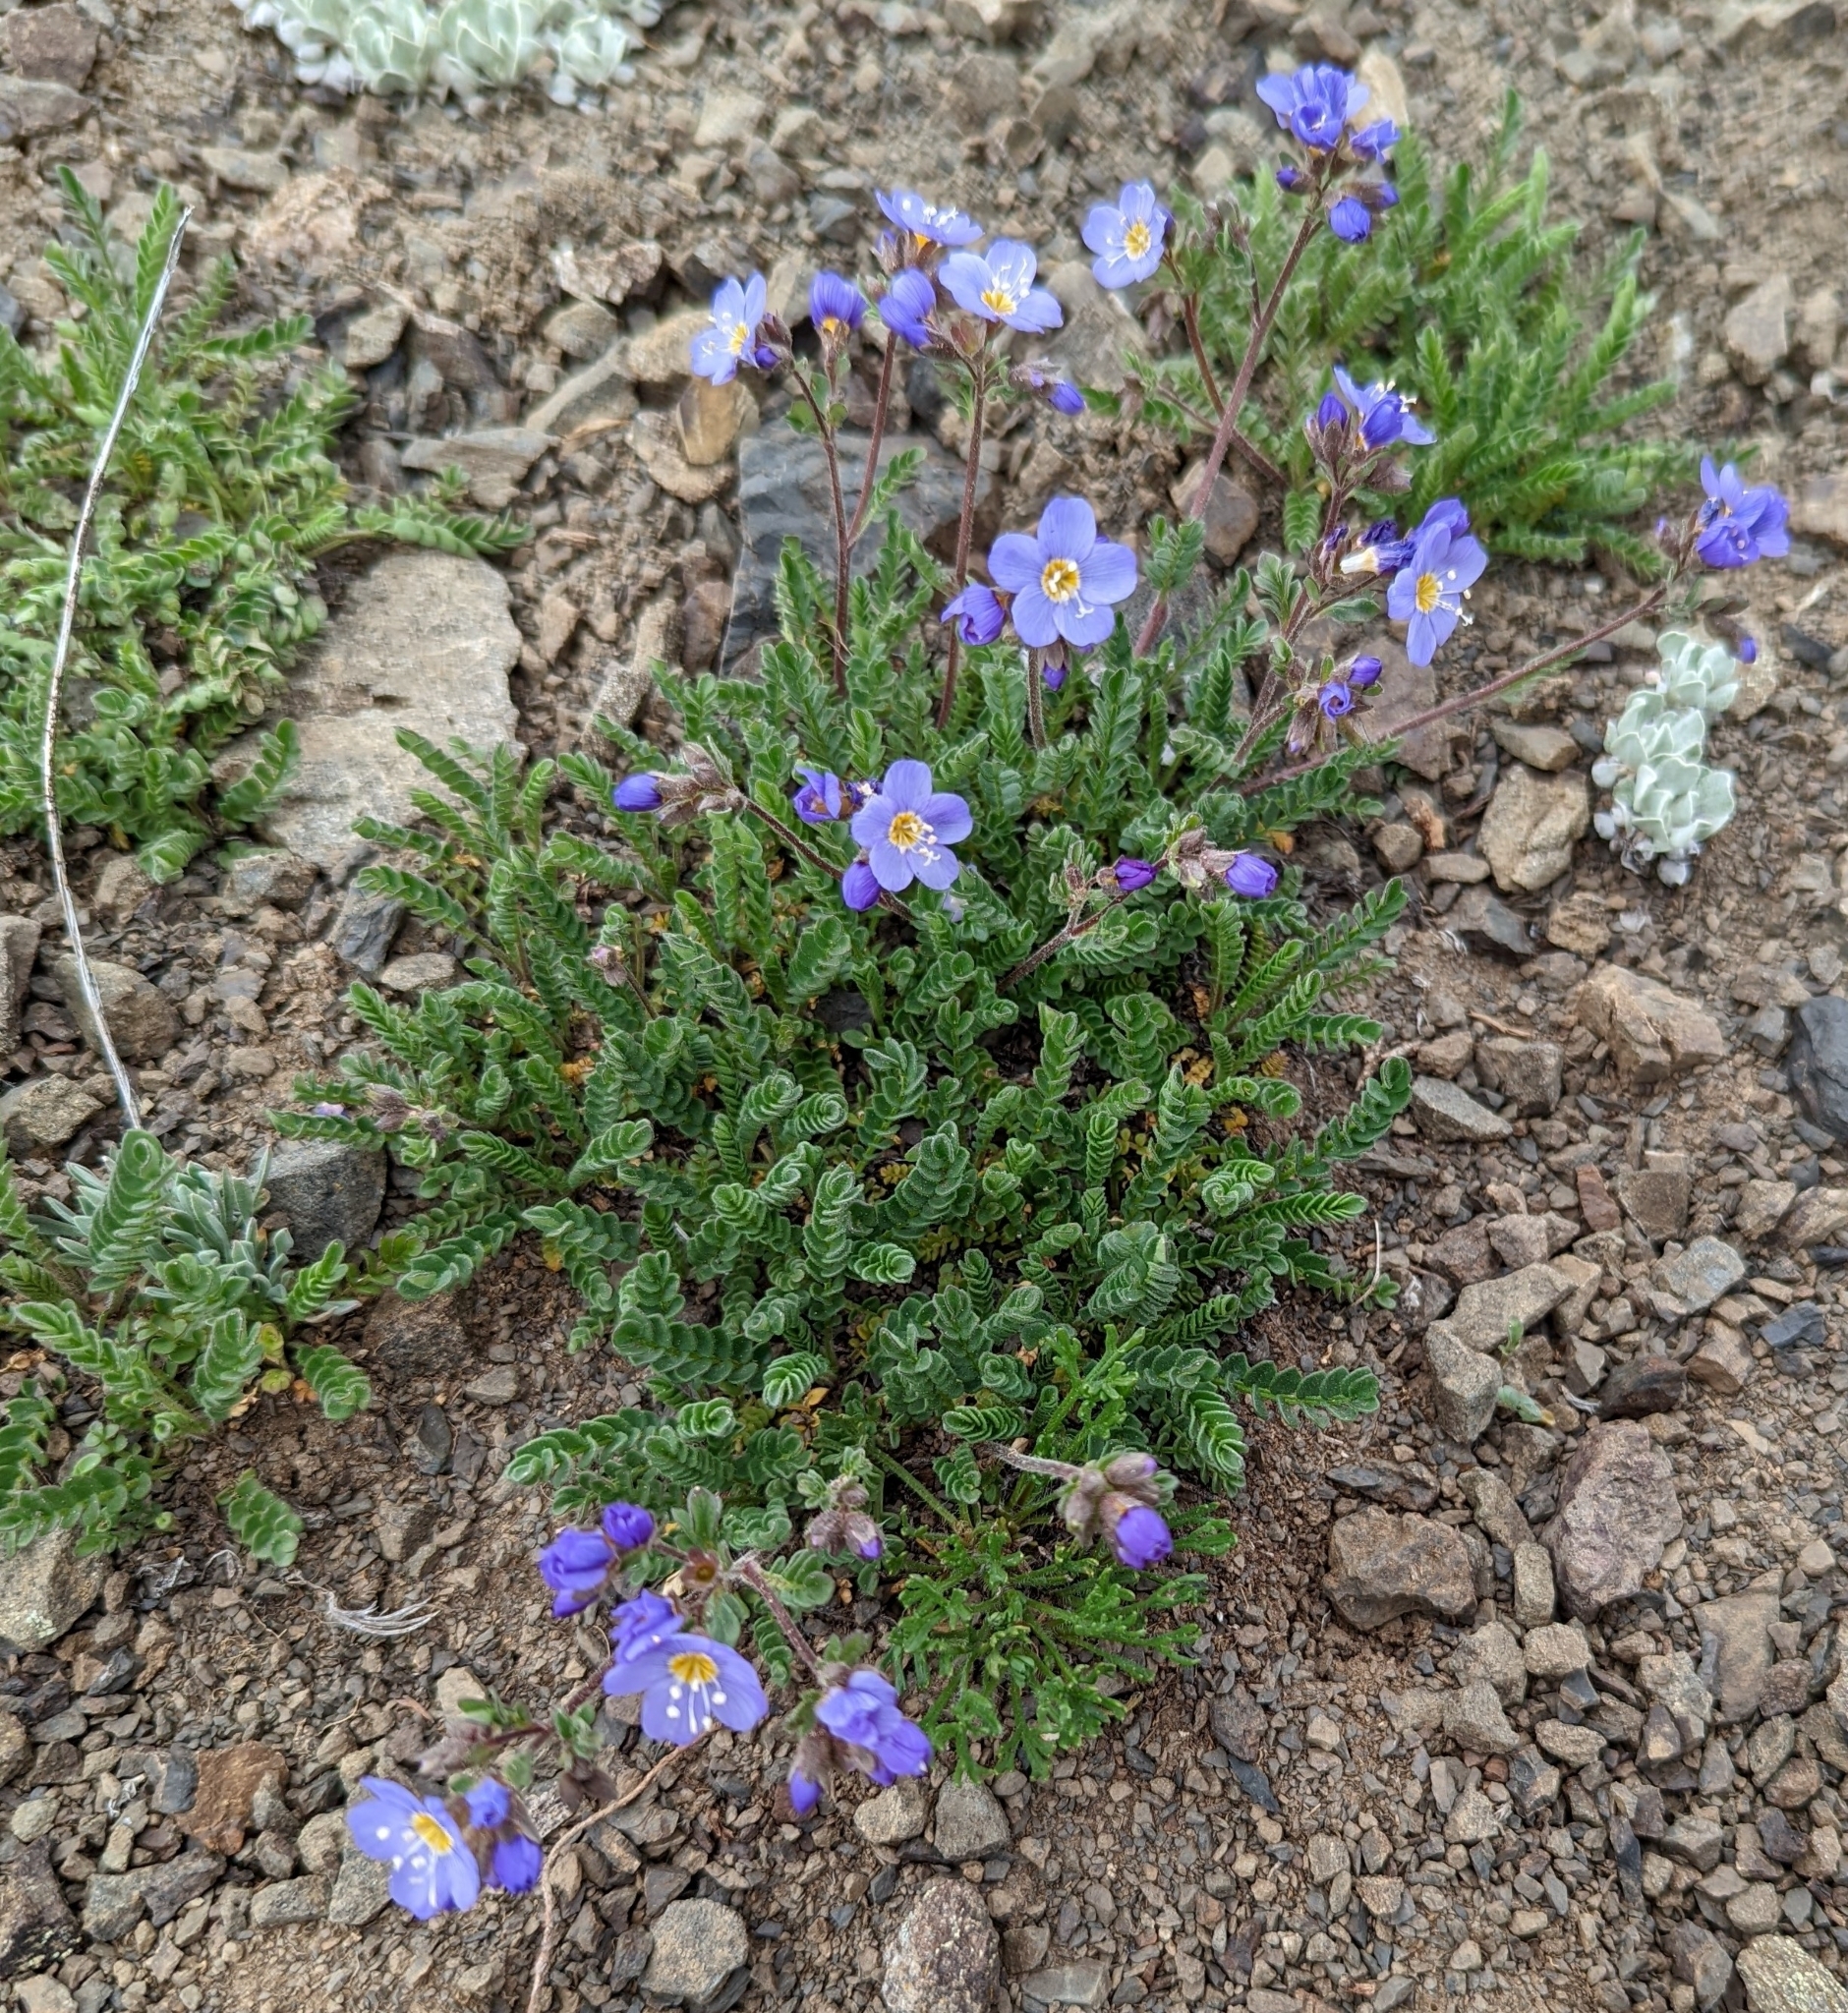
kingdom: Plantae
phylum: Tracheophyta
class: Magnoliopsida
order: Ericales
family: Polemoniaceae
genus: Polemonium
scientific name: Polemonium pulcherrimum
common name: Short jacob's-ladder
